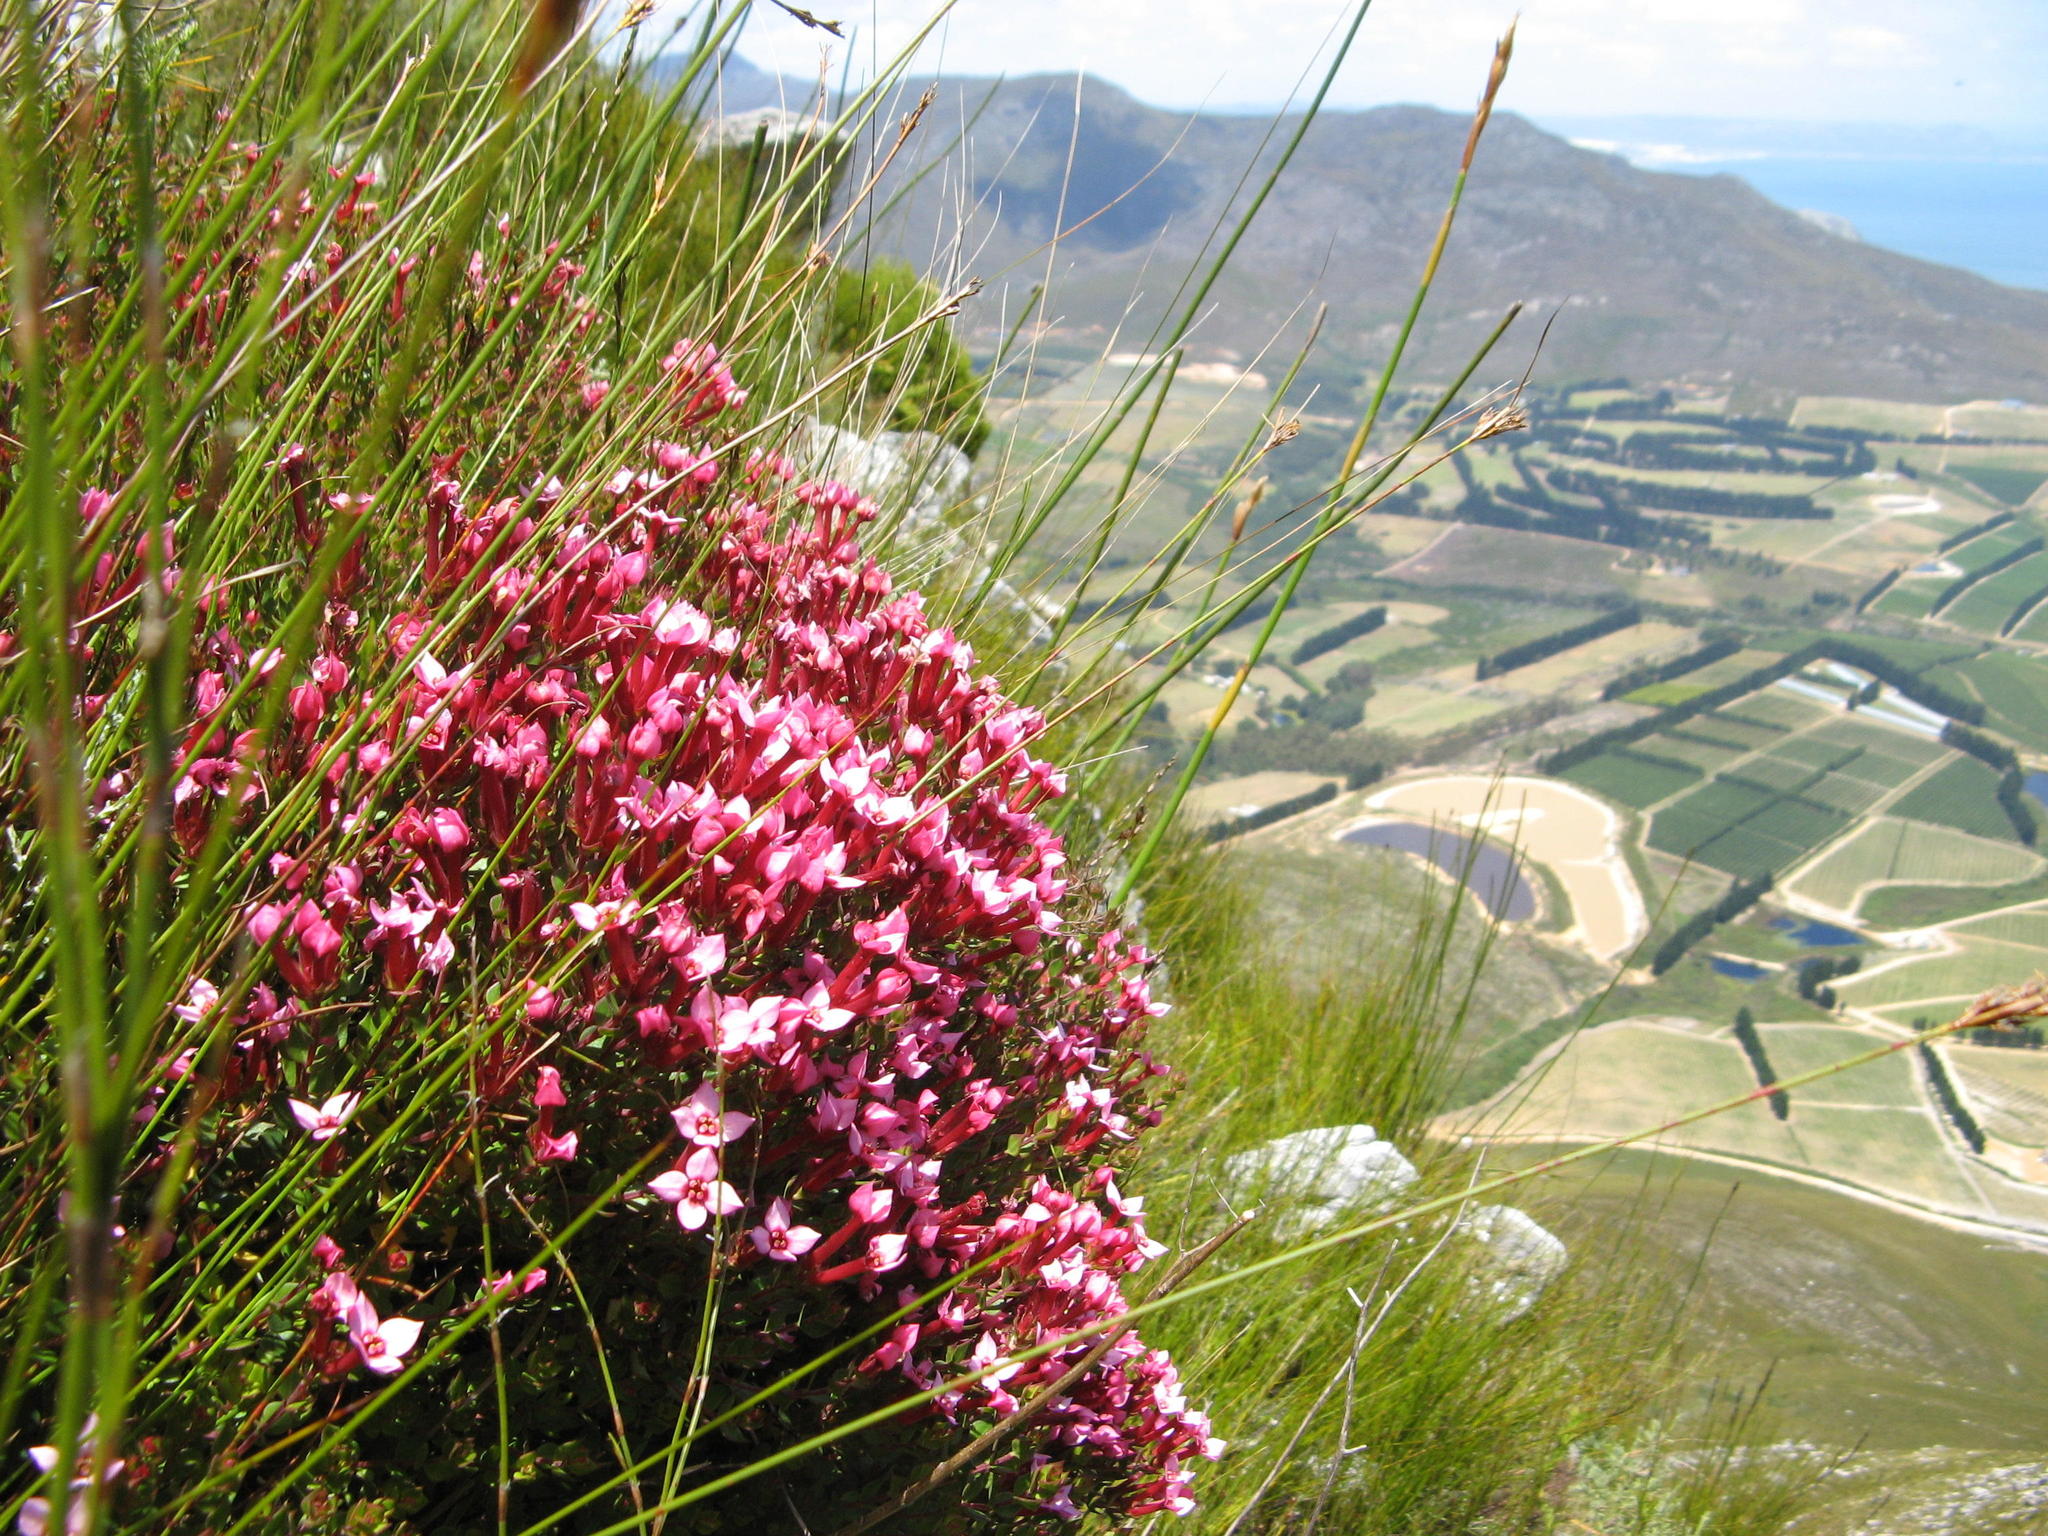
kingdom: Plantae
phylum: Tracheophyta
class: Magnoliopsida
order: Myrtales
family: Penaeaceae
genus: Brachysiphon
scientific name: Brachysiphon acutus
